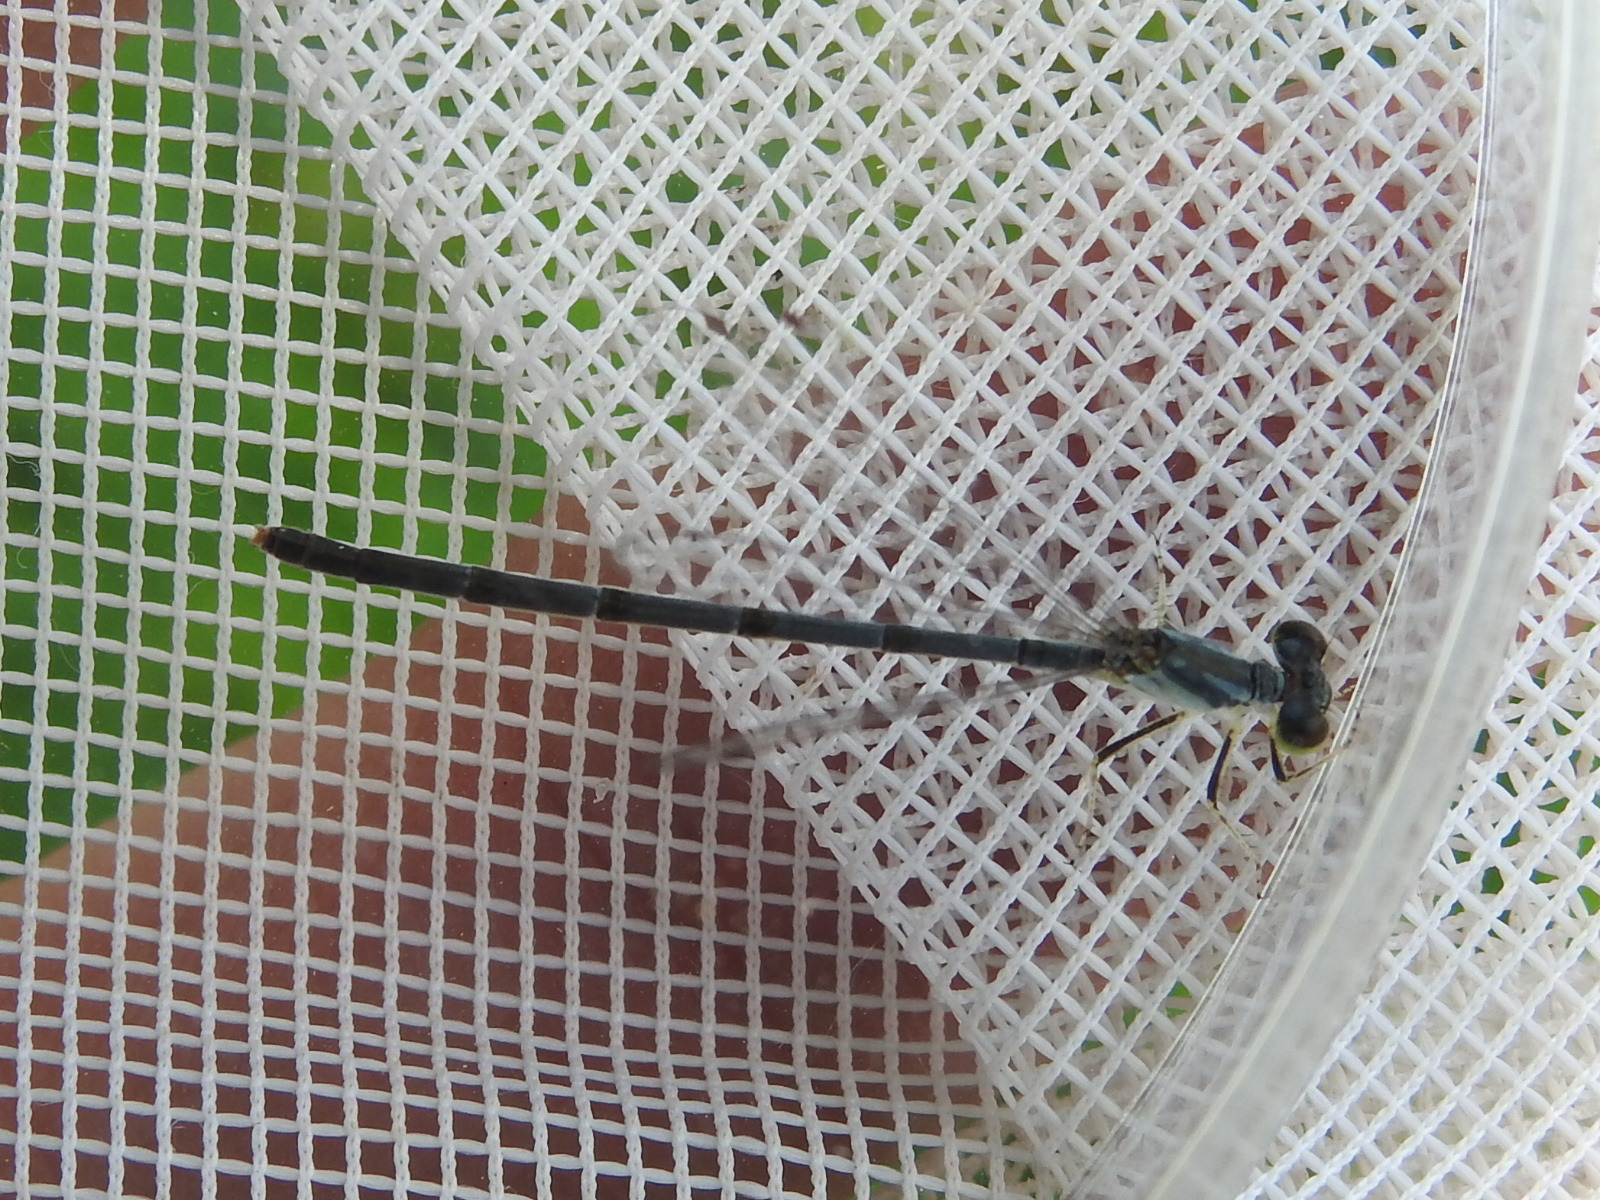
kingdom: Animalia
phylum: Arthropoda
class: Insecta
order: Odonata
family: Coenagrionidae
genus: Ischnura
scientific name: Ischnura posita
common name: Fragile forktail
